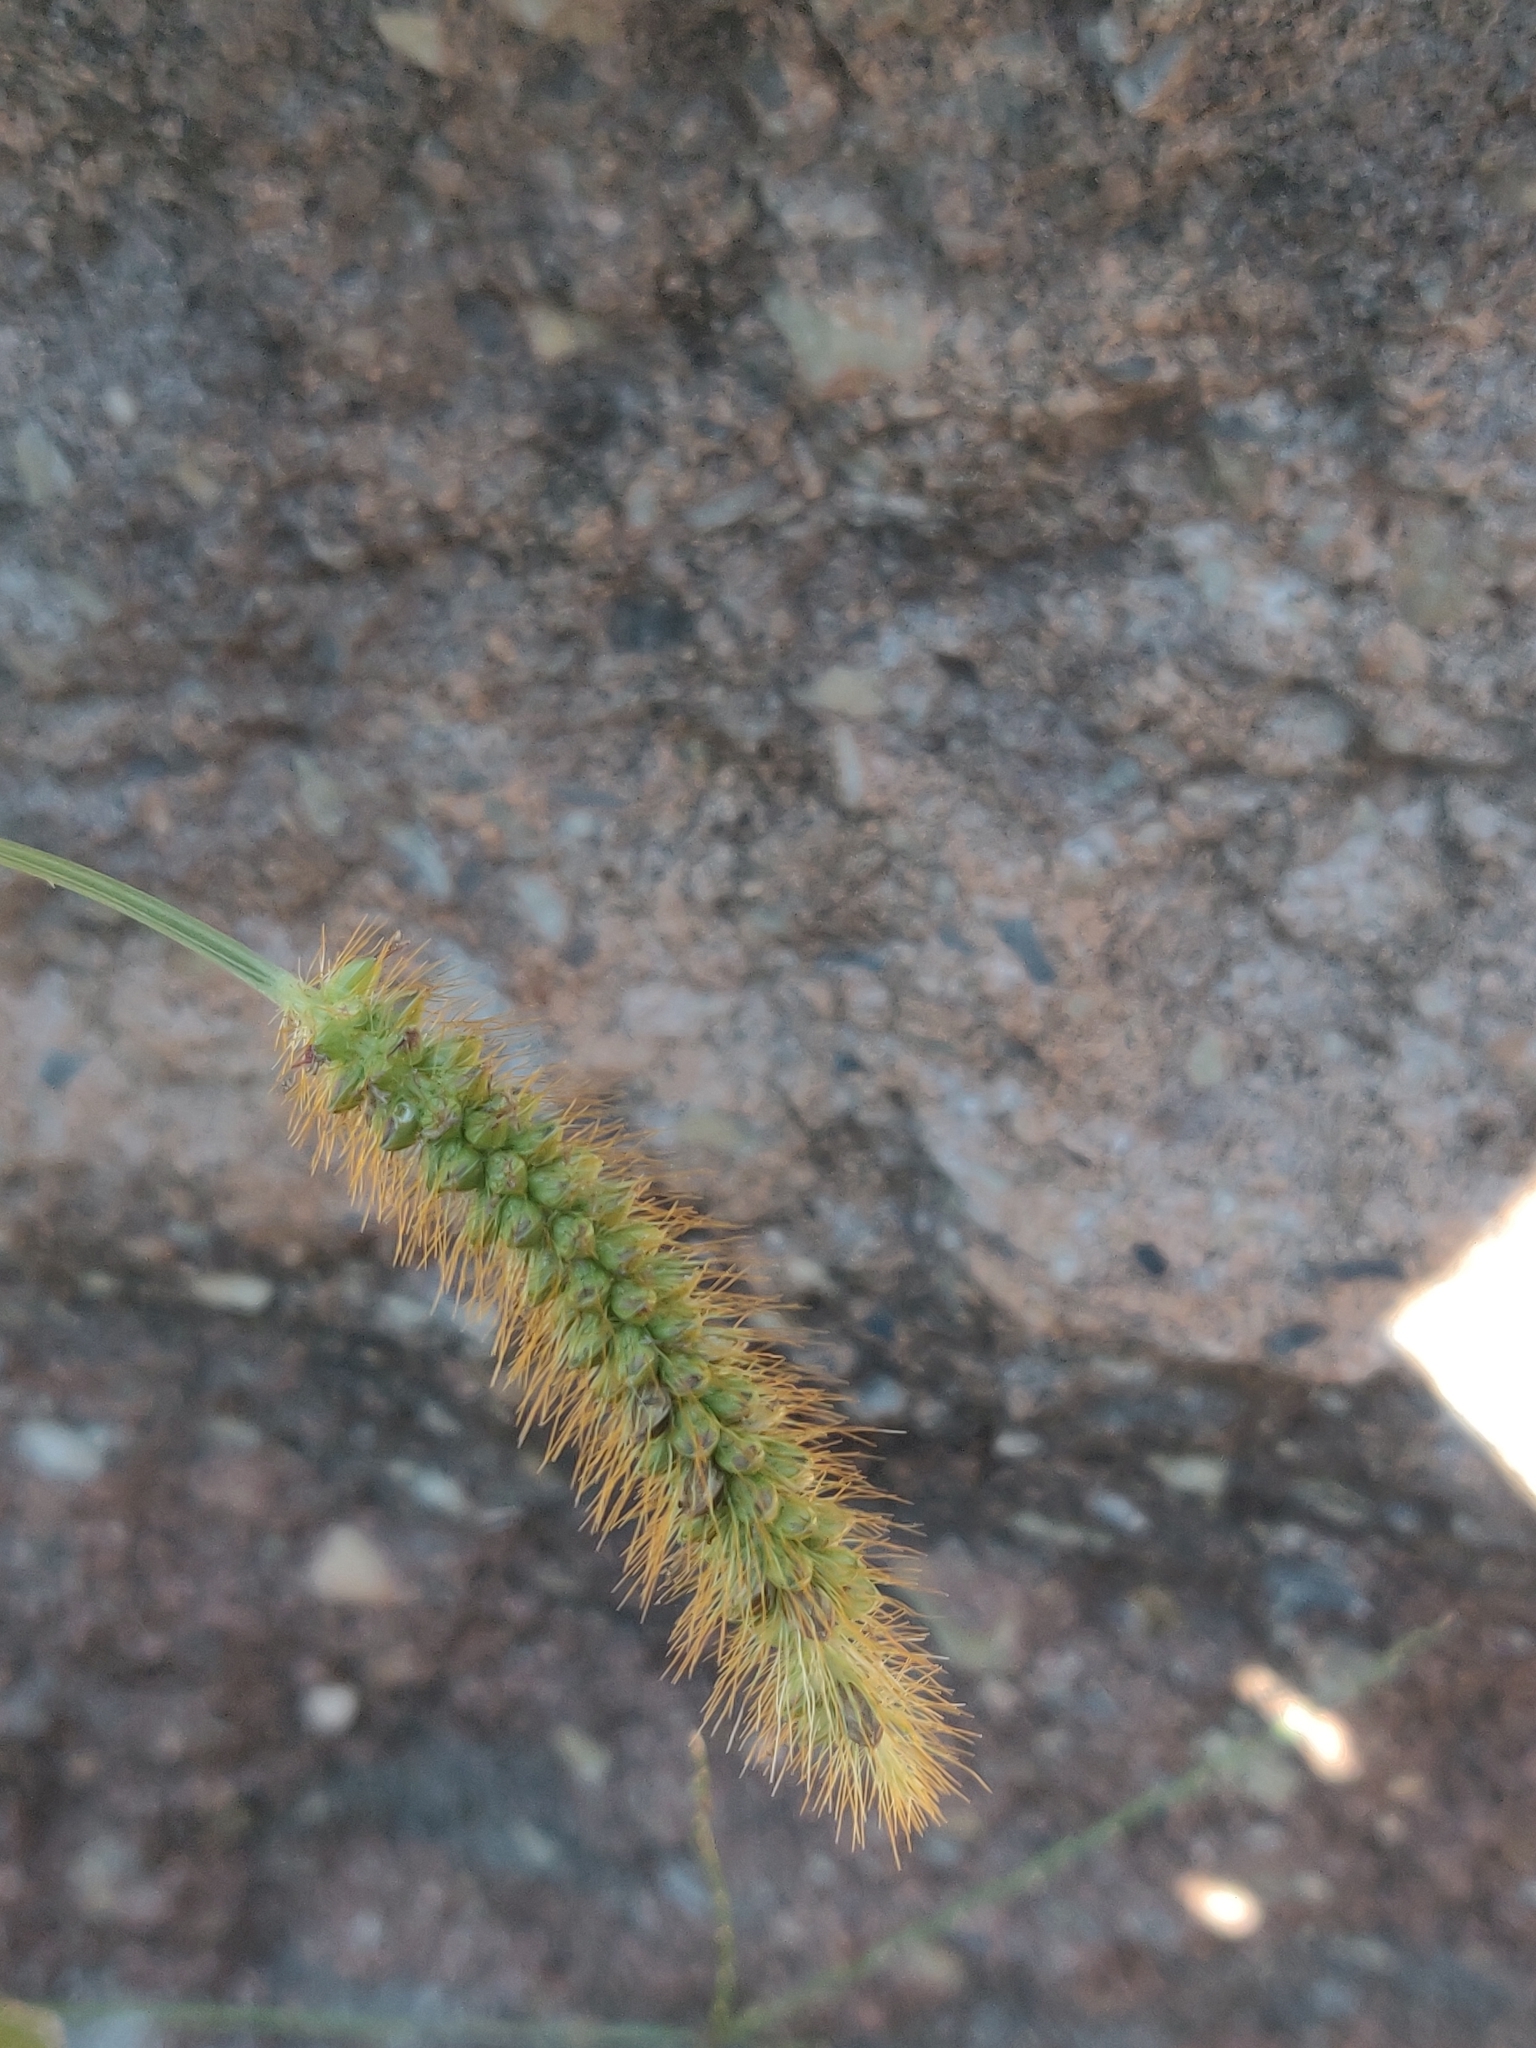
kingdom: Plantae
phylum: Tracheophyta
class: Liliopsida
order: Poales
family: Poaceae
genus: Setaria
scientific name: Setaria pumila
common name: Yellow bristle-grass
